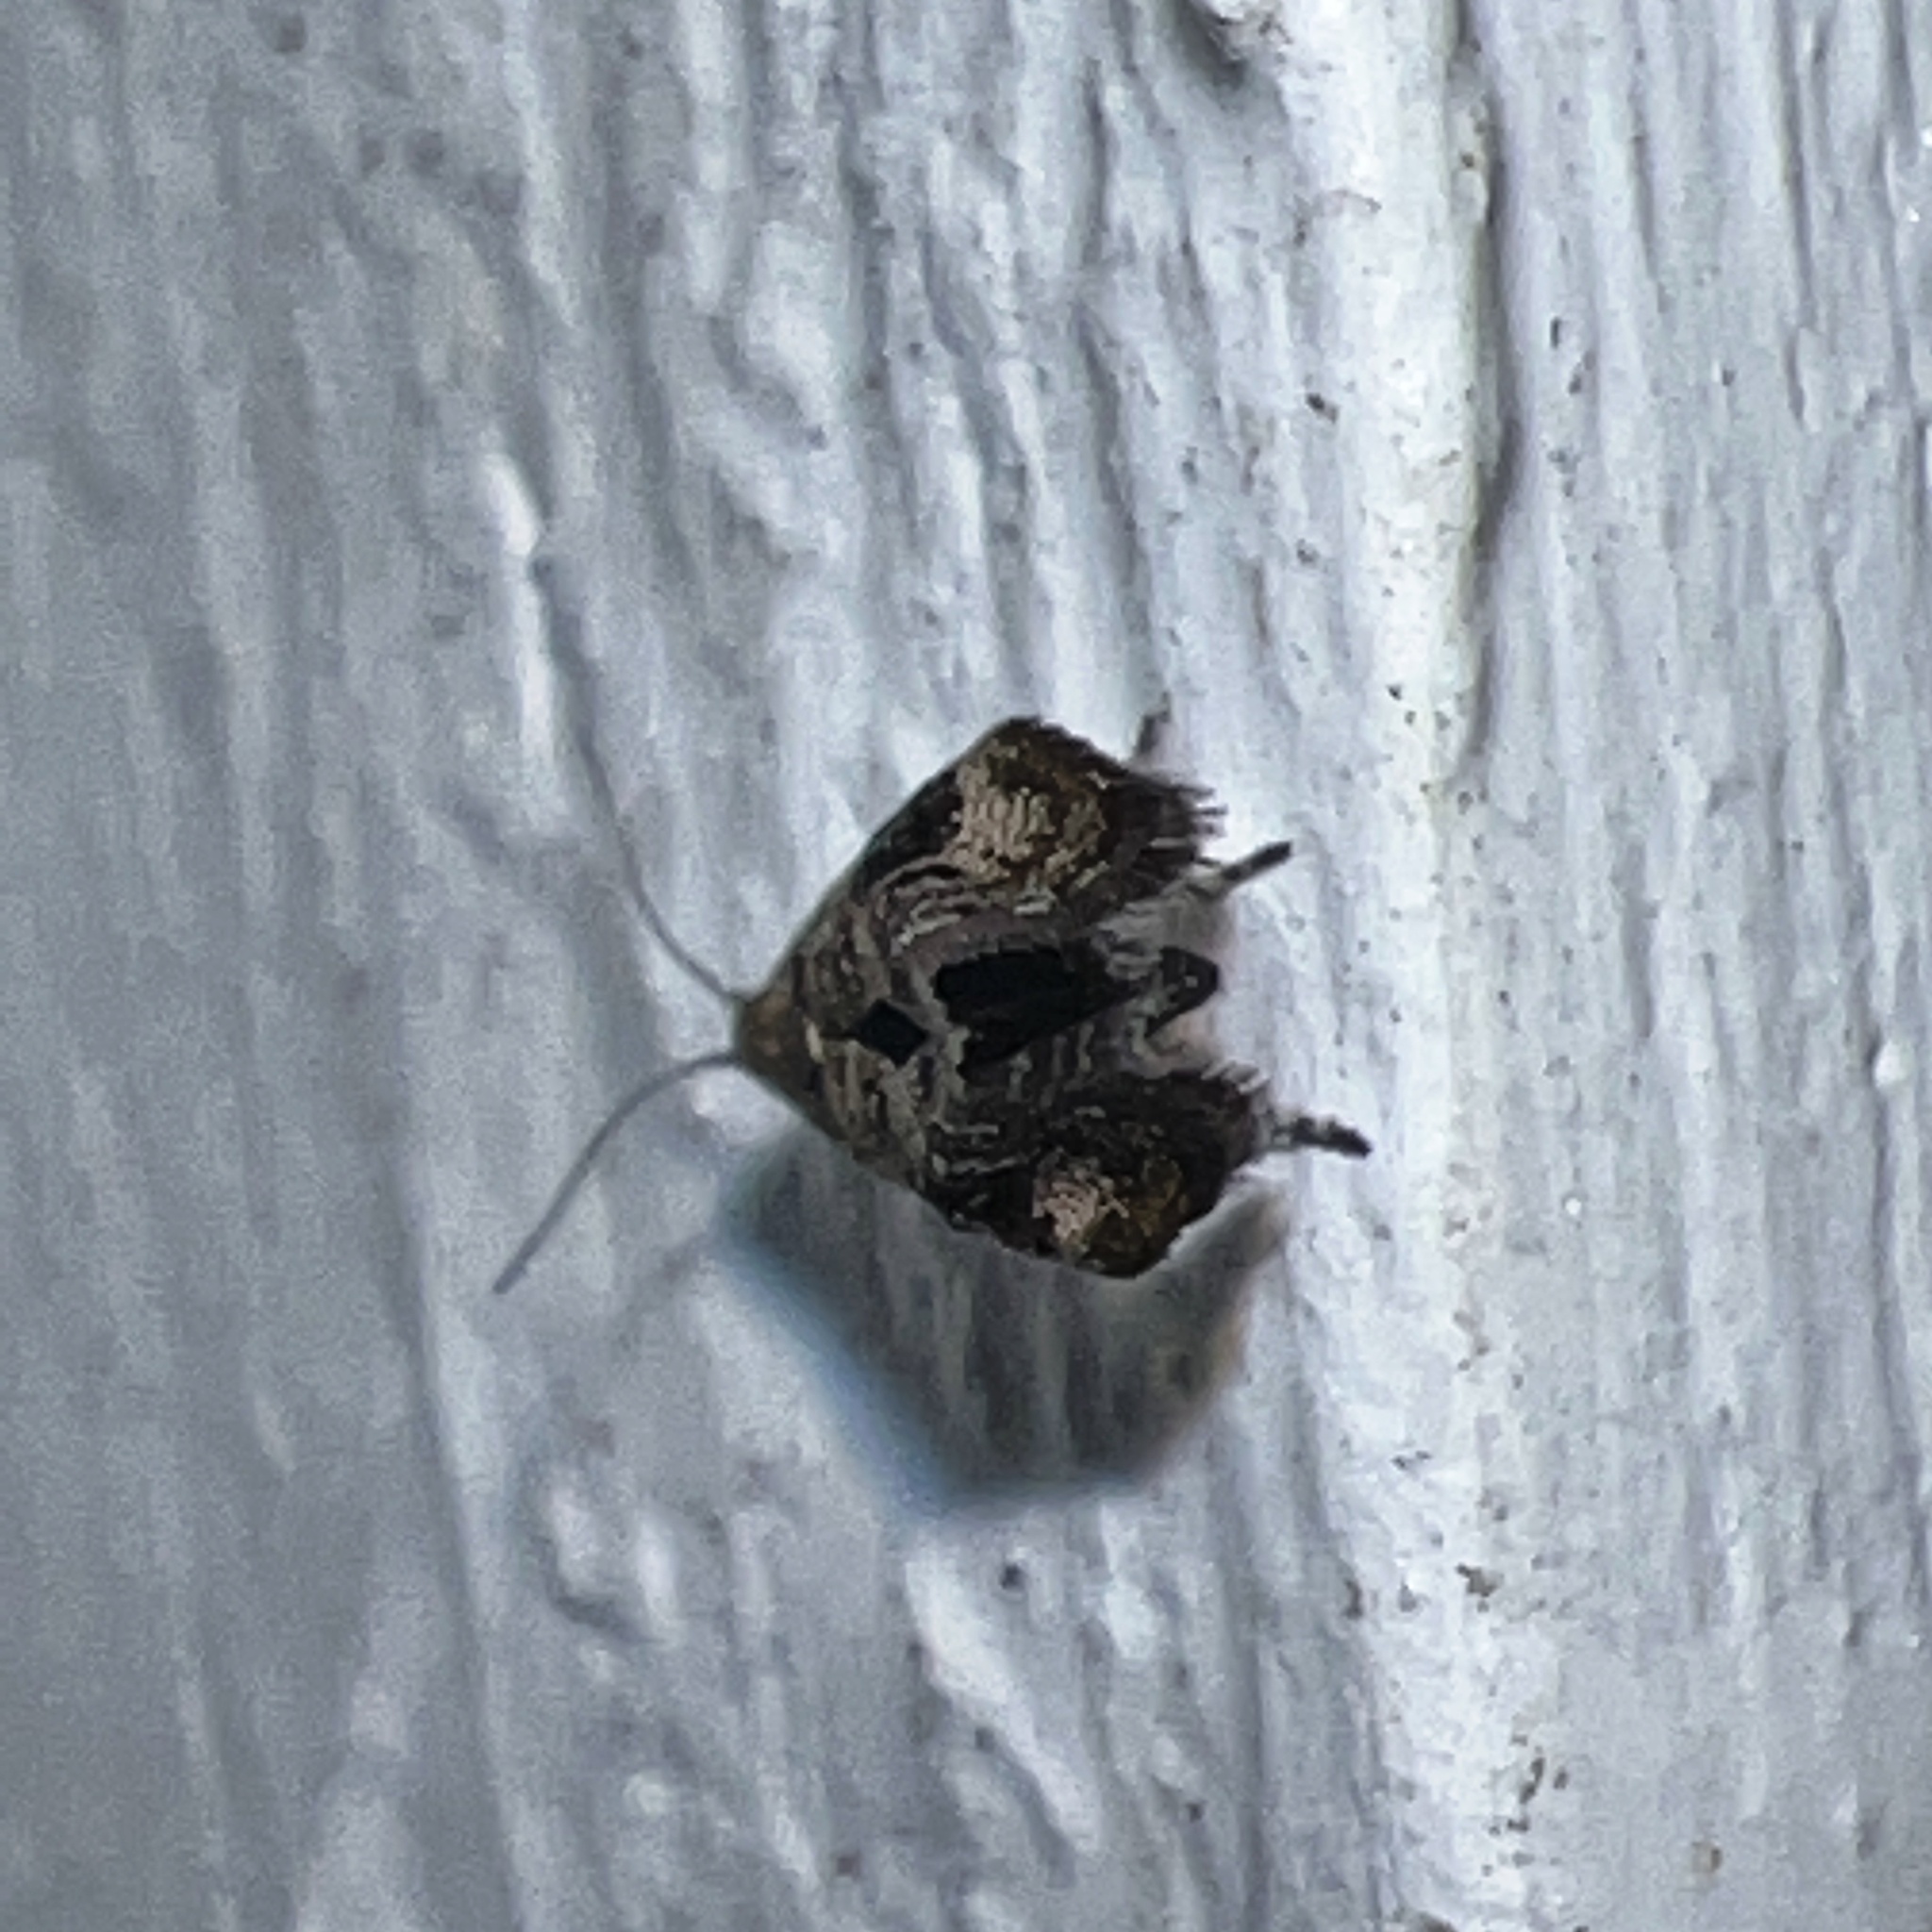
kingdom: Animalia
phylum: Arthropoda
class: Insecta
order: Lepidoptera
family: Choreutidae
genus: Tebenna
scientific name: Tebenna gnaphaliella
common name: Everlasting tebenna moth
